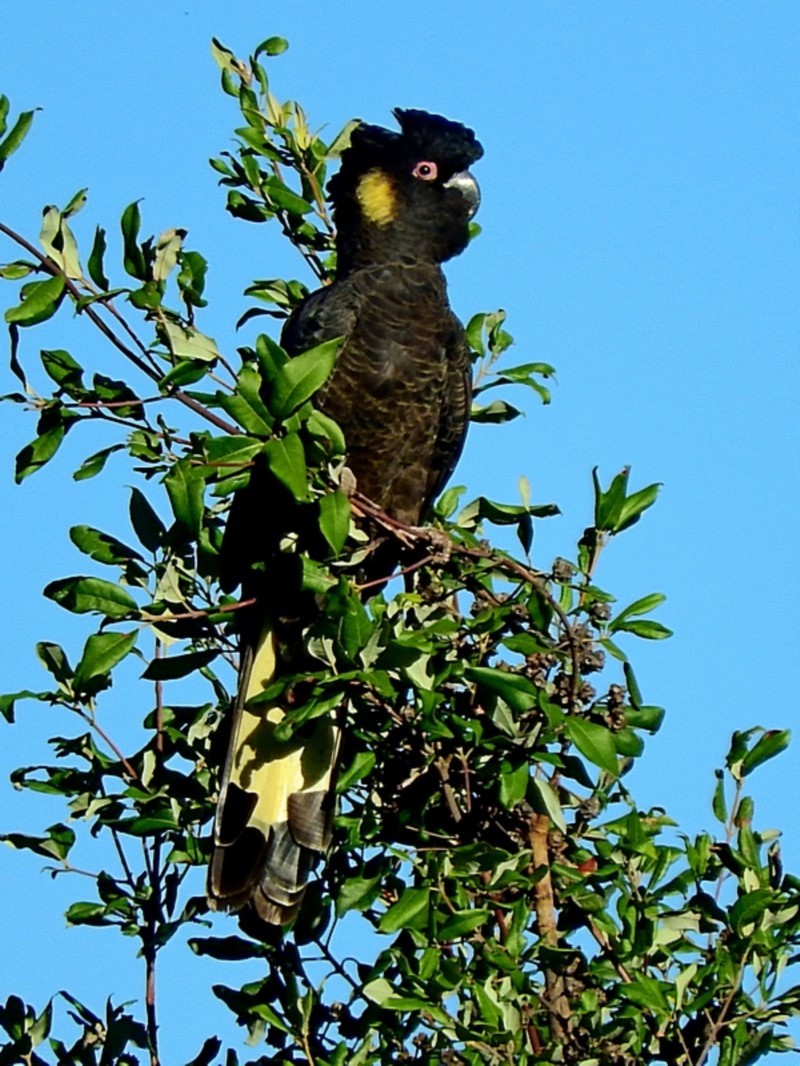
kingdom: Animalia
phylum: Chordata
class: Aves
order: Psittaciformes
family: Cacatuidae
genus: Zanda
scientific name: Zanda funerea
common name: Yellow-tailed black-cockatoo
